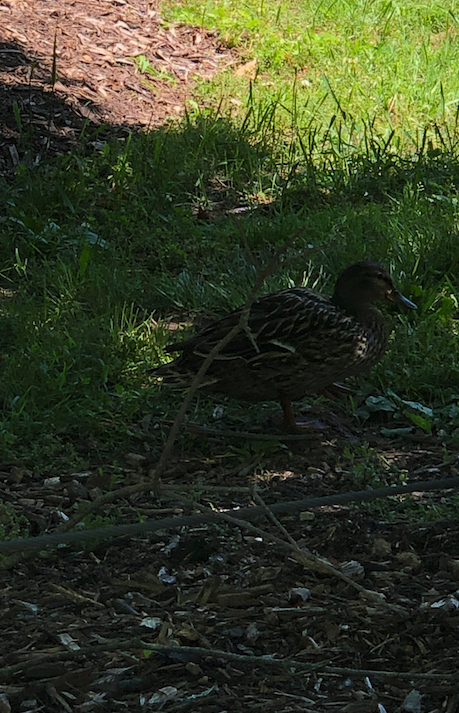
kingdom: Animalia
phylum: Chordata
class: Aves
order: Anseriformes
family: Anatidae
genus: Anas
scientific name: Anas platyrhynchos
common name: Mallard
